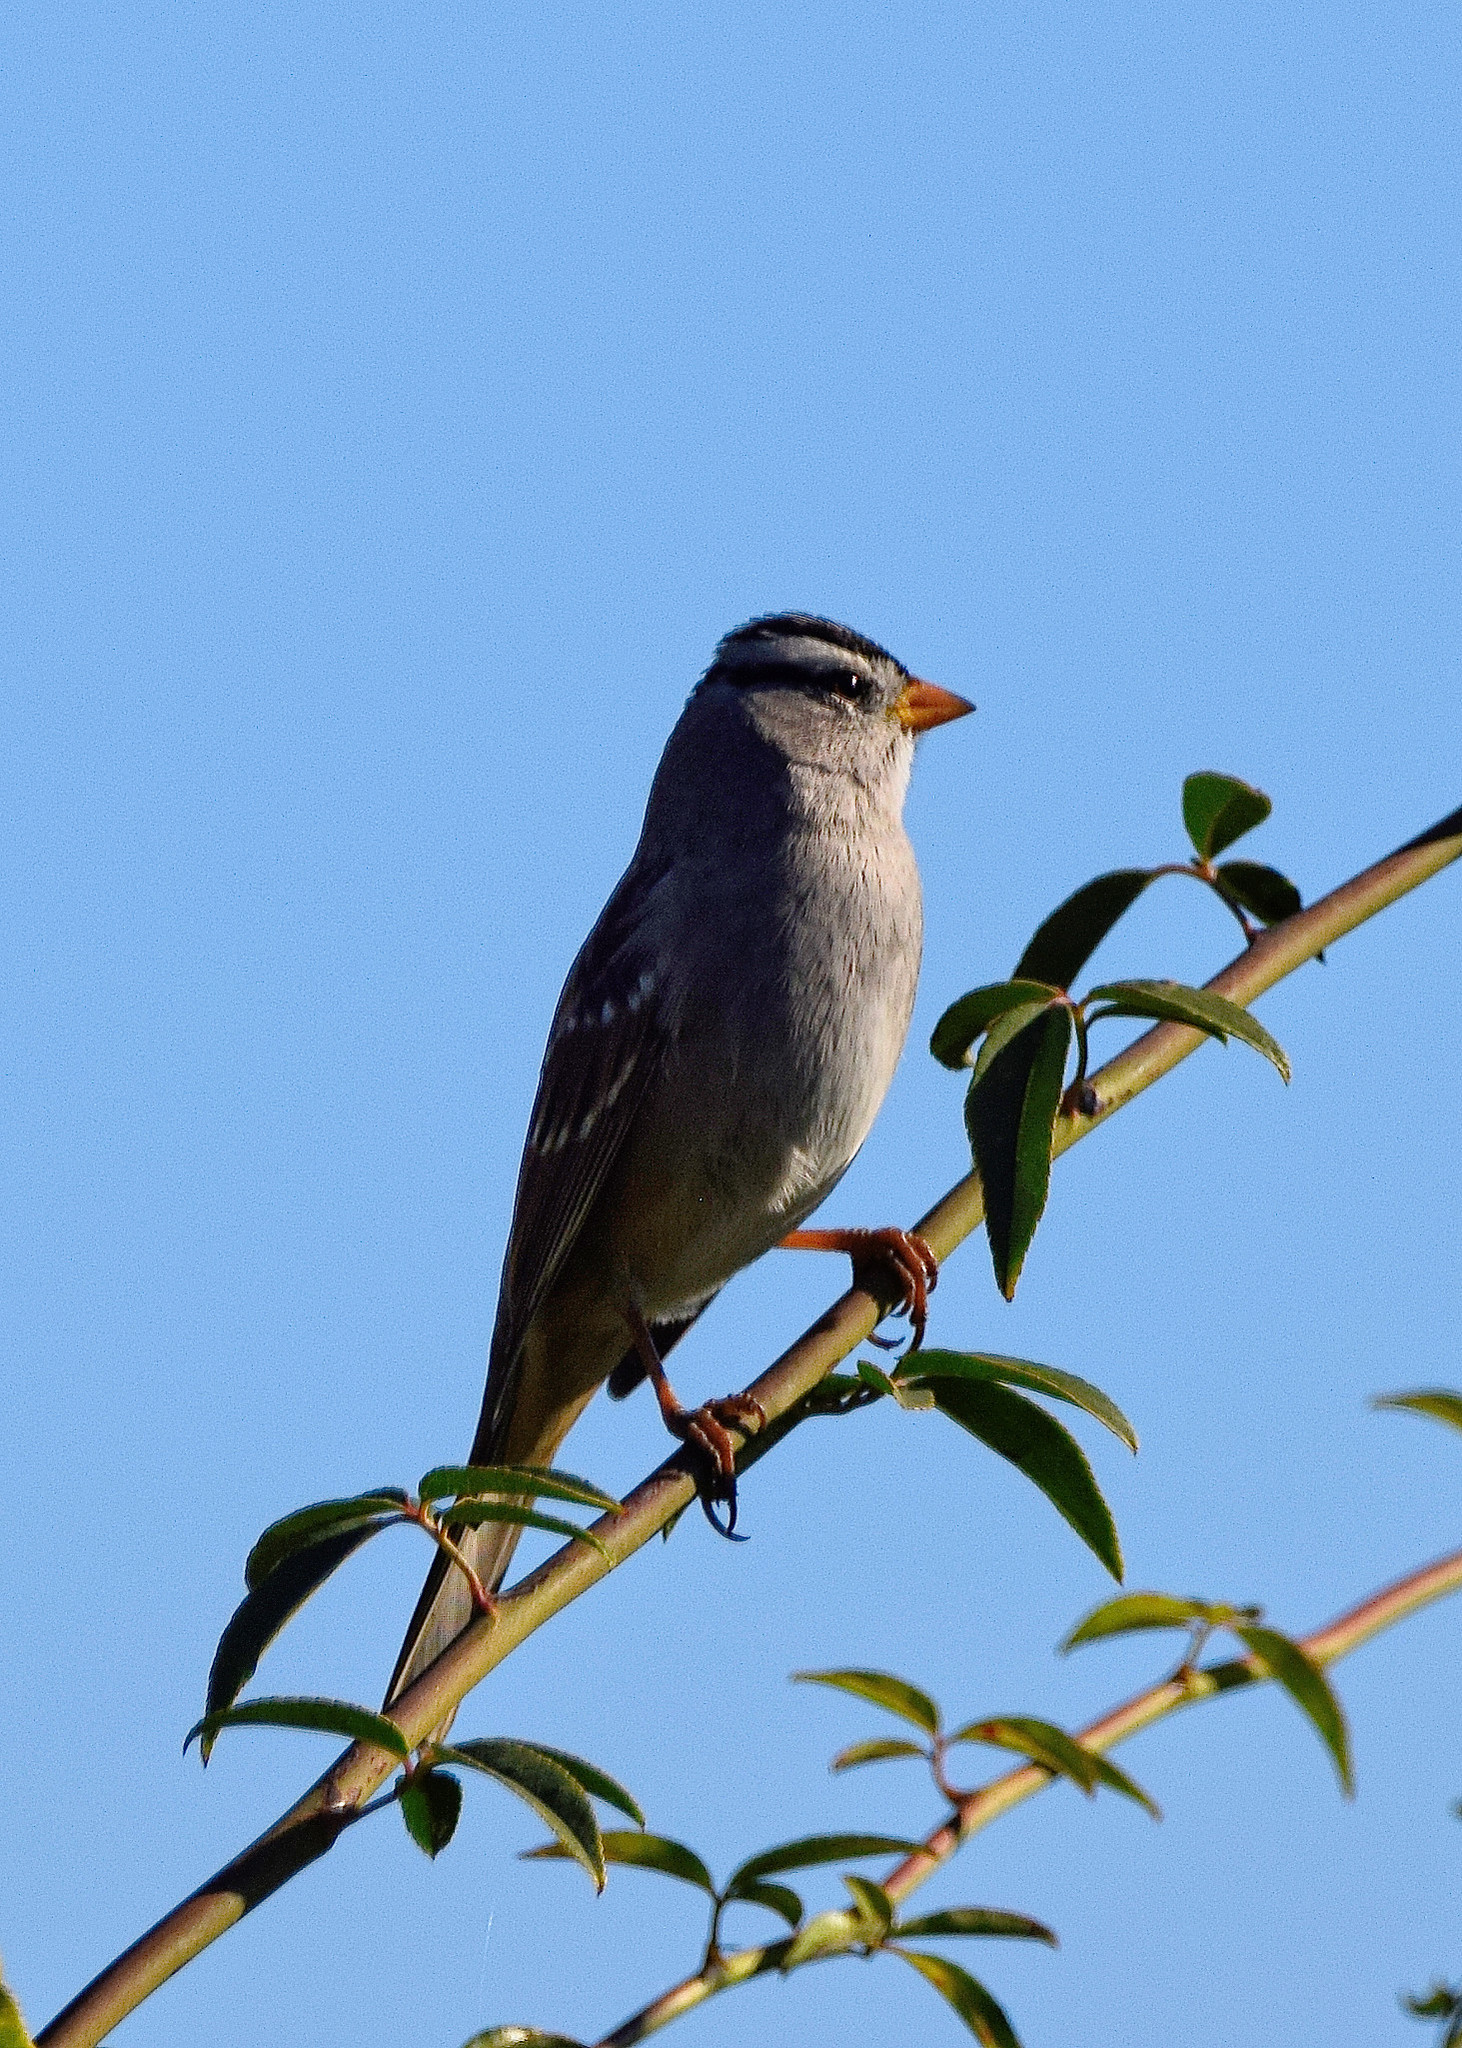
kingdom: Animalia
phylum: Chordata
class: Aves
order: Passeriformes
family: Passerellidae
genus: Zonotrichia
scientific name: Zonotrichia leucophrys
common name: White-crowned sparrow
